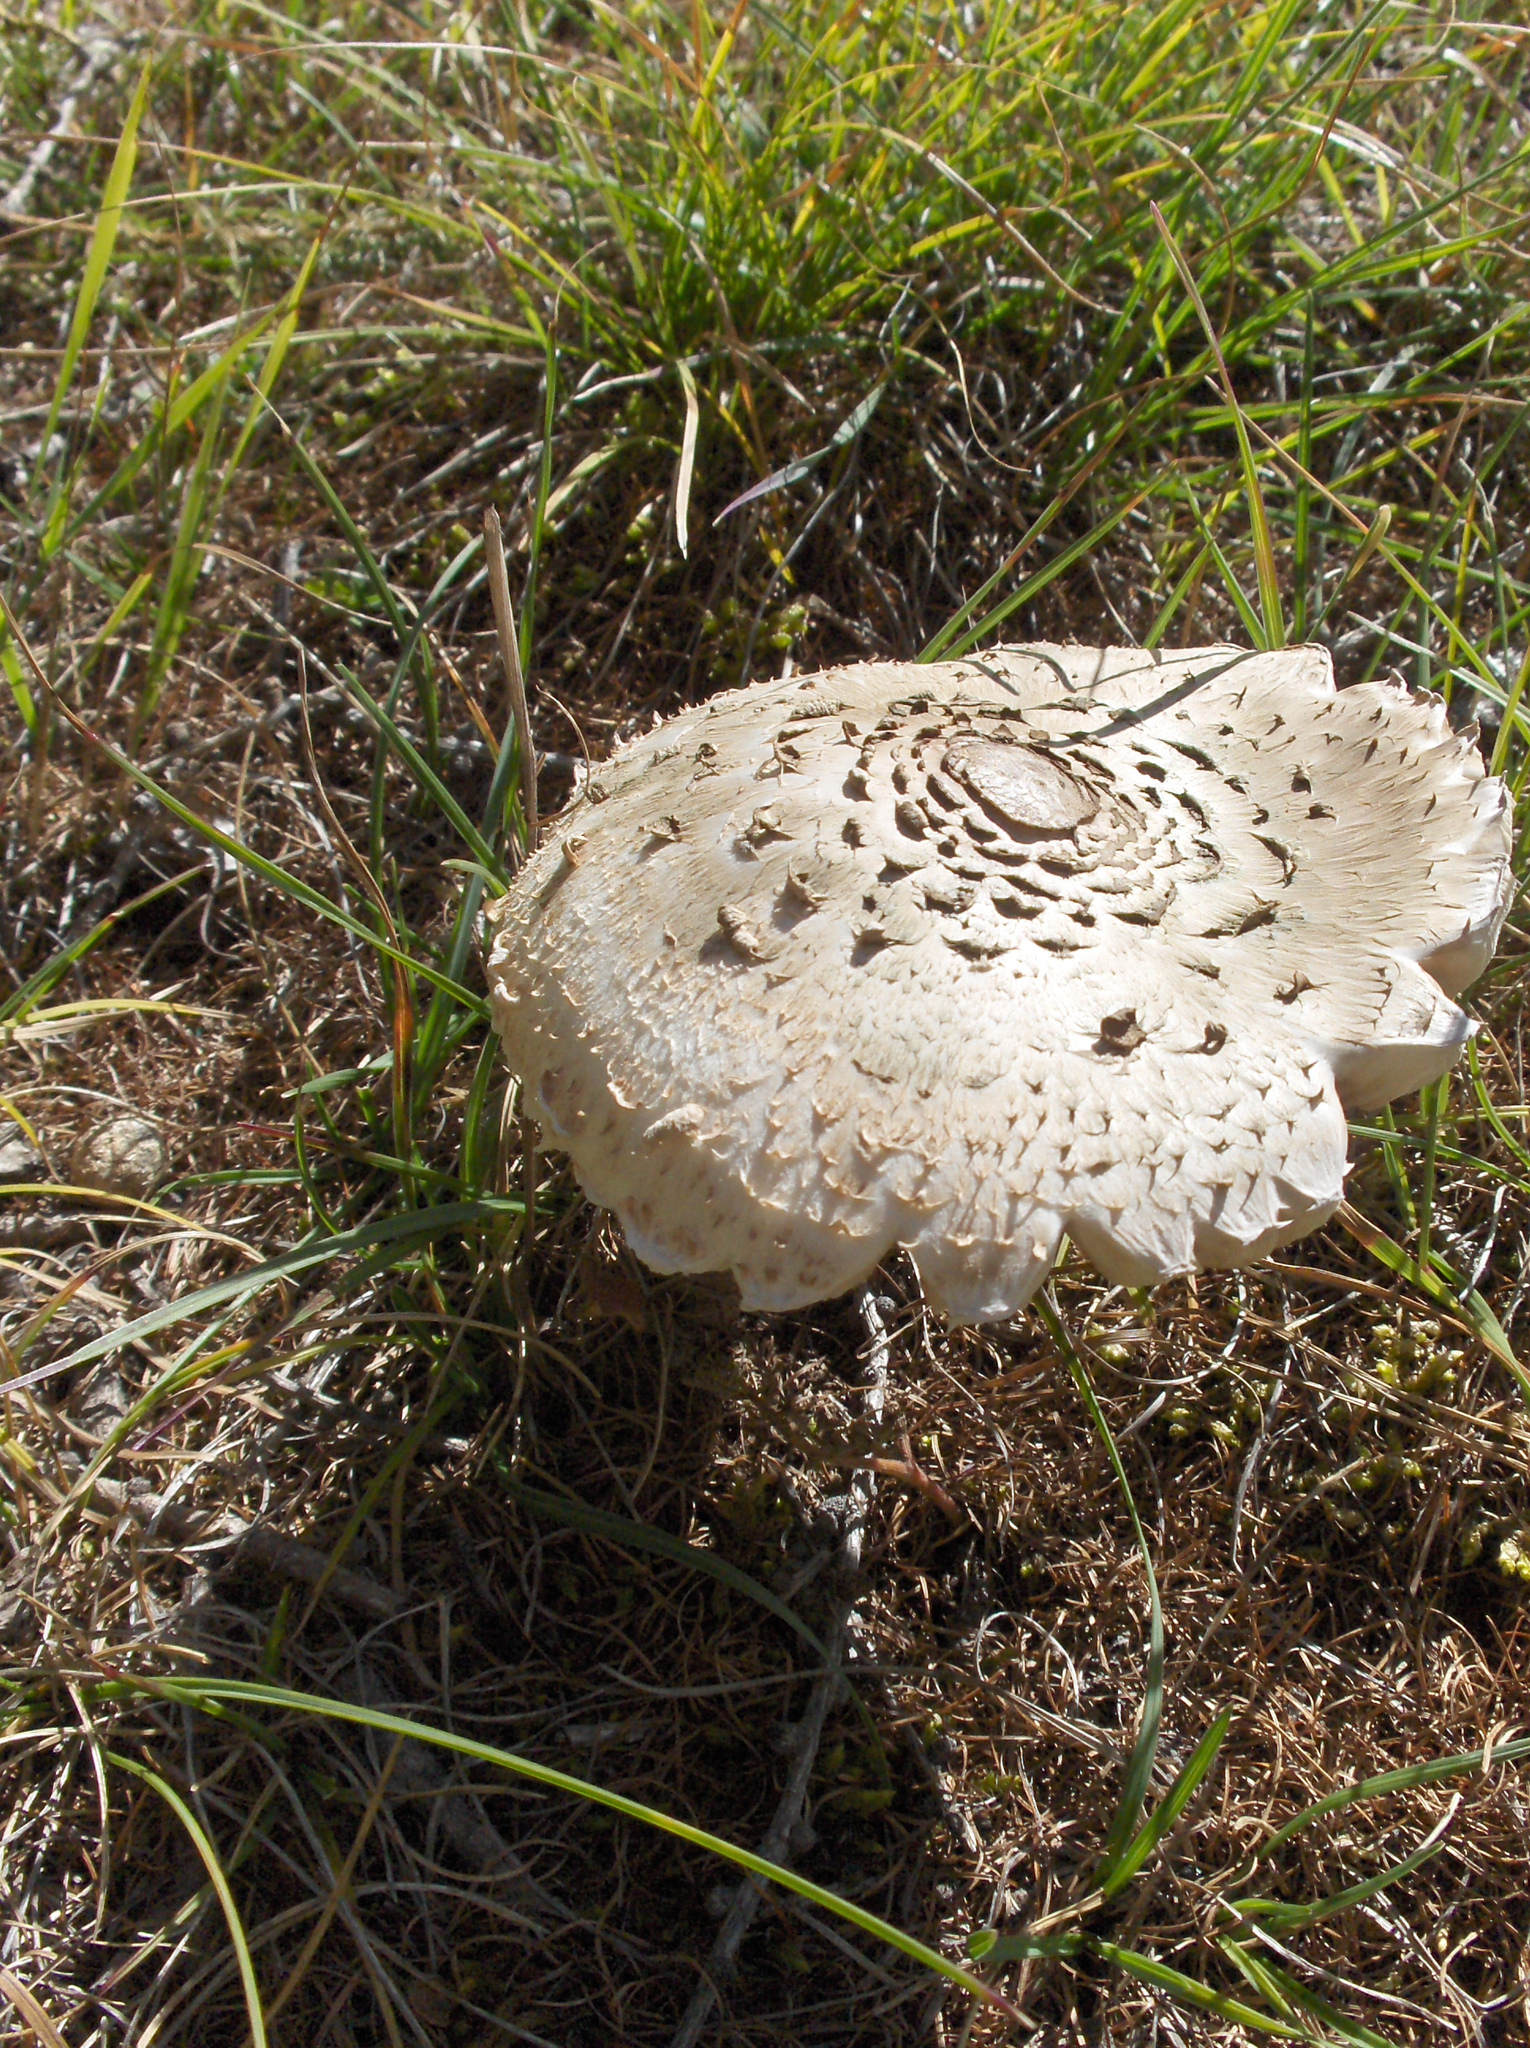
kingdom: Fungi
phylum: Basidiomycota
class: Agaricomycetes
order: Agaricales
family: Agaricaceae
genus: Macrolepiota
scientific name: Macrolepiota procera
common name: Parasol
